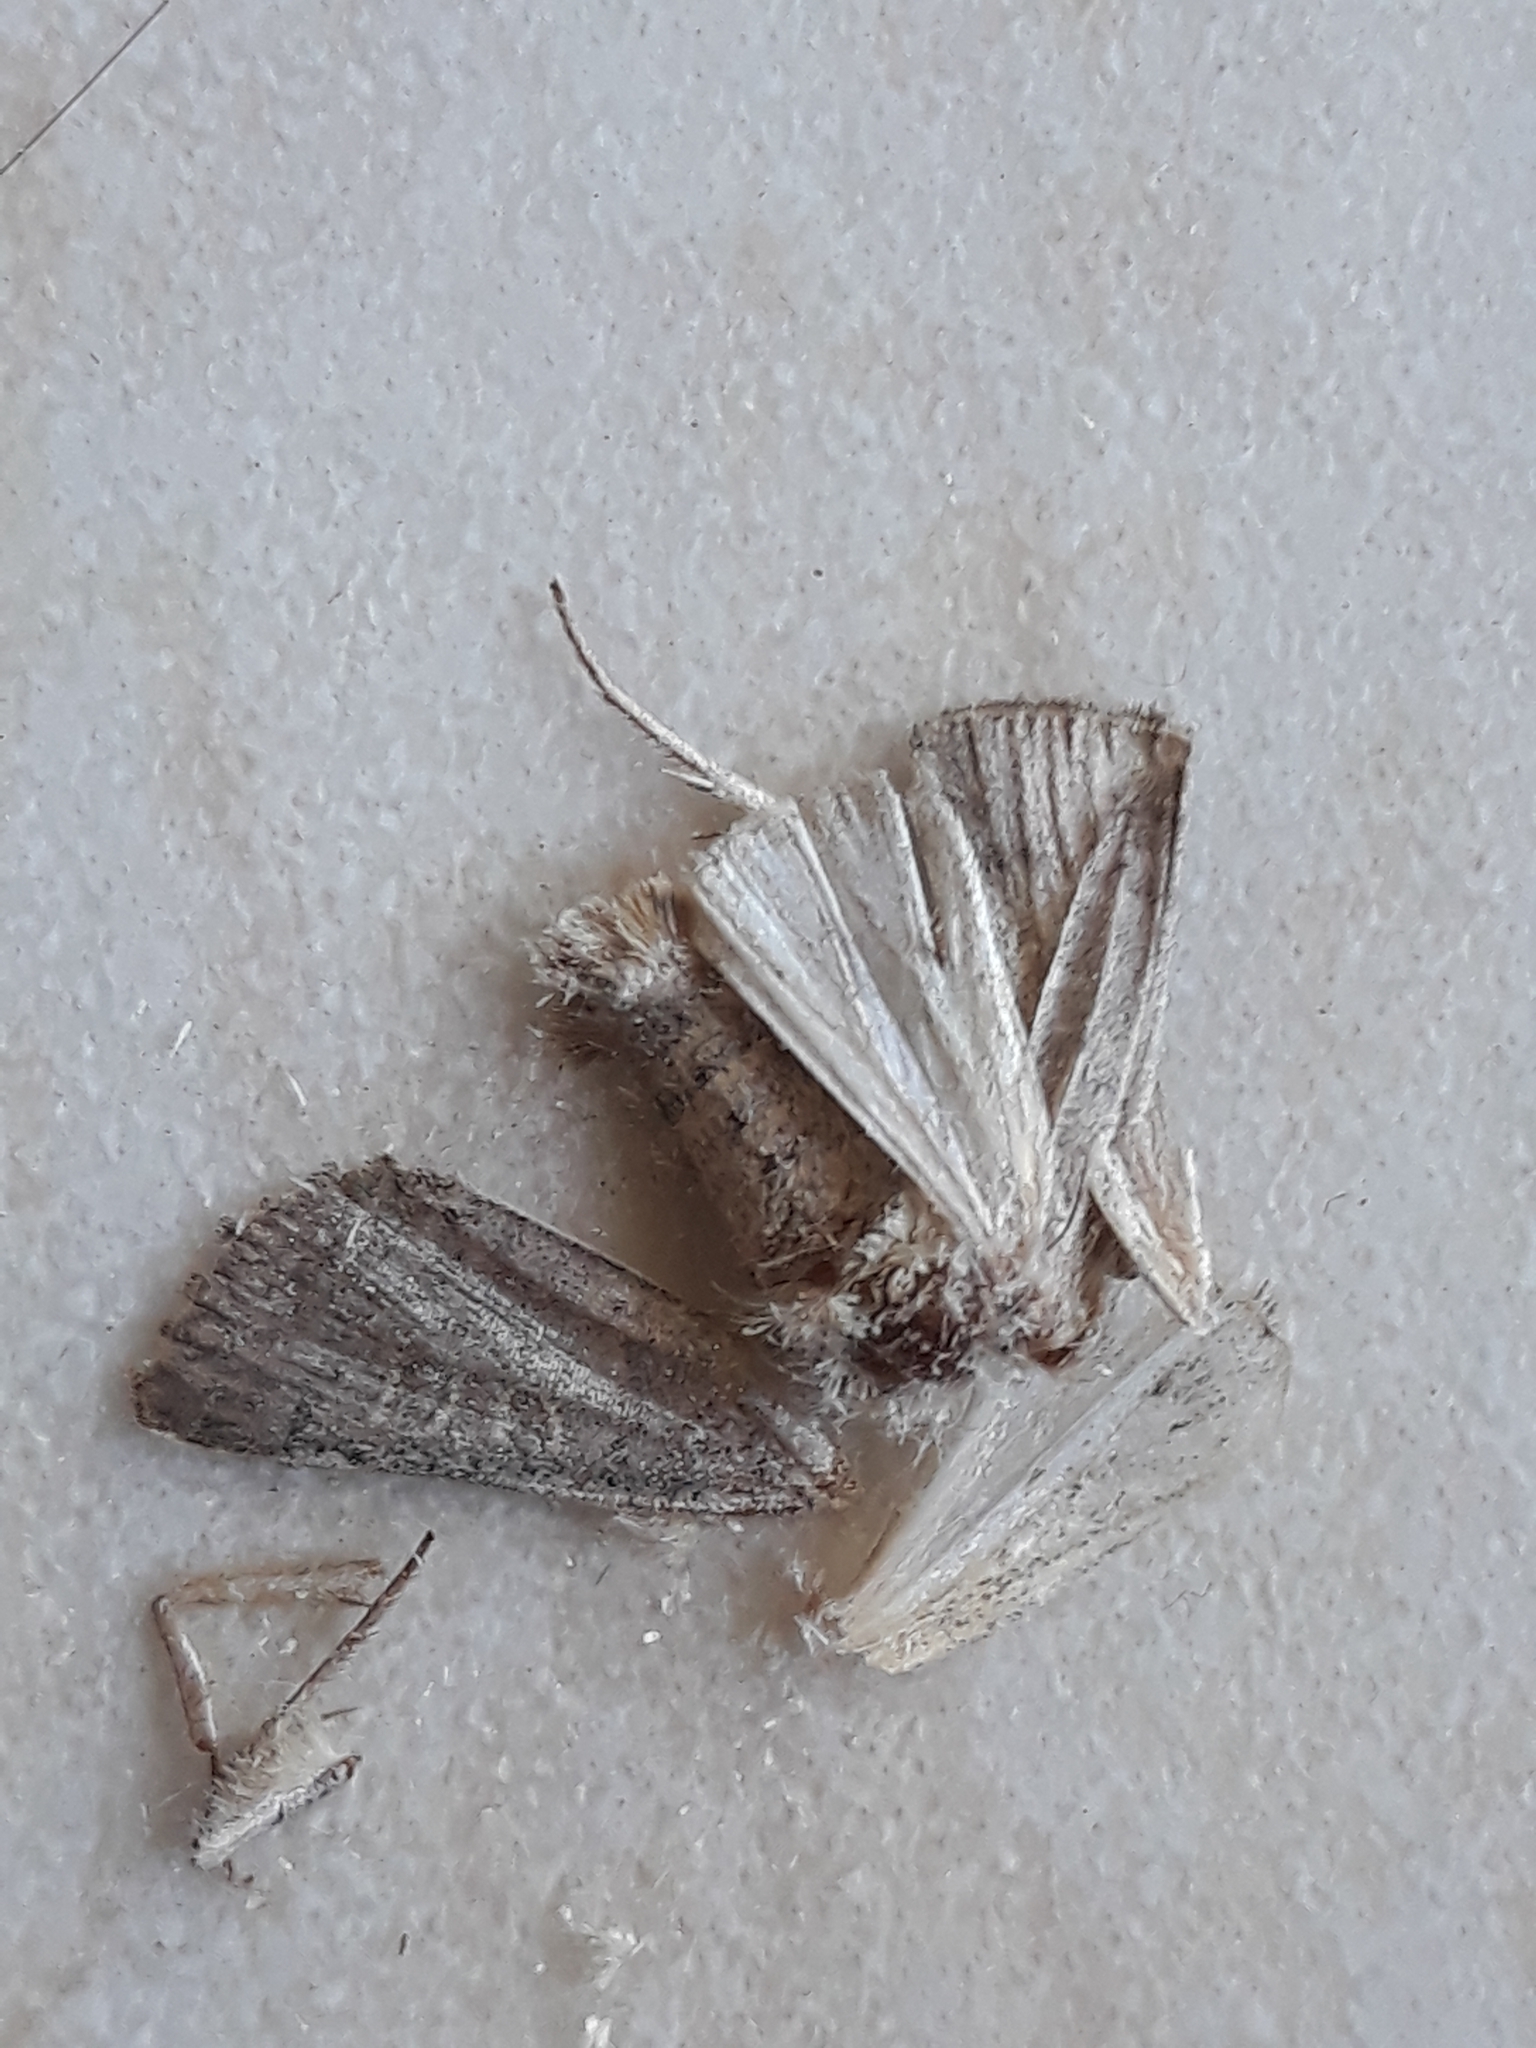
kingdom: Animalia
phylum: Arthropoda
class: Insecta
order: Lepidoptera
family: Noctuidae
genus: Hoplodrina
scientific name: Hoplodrina ambigua
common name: Vine's rustic
